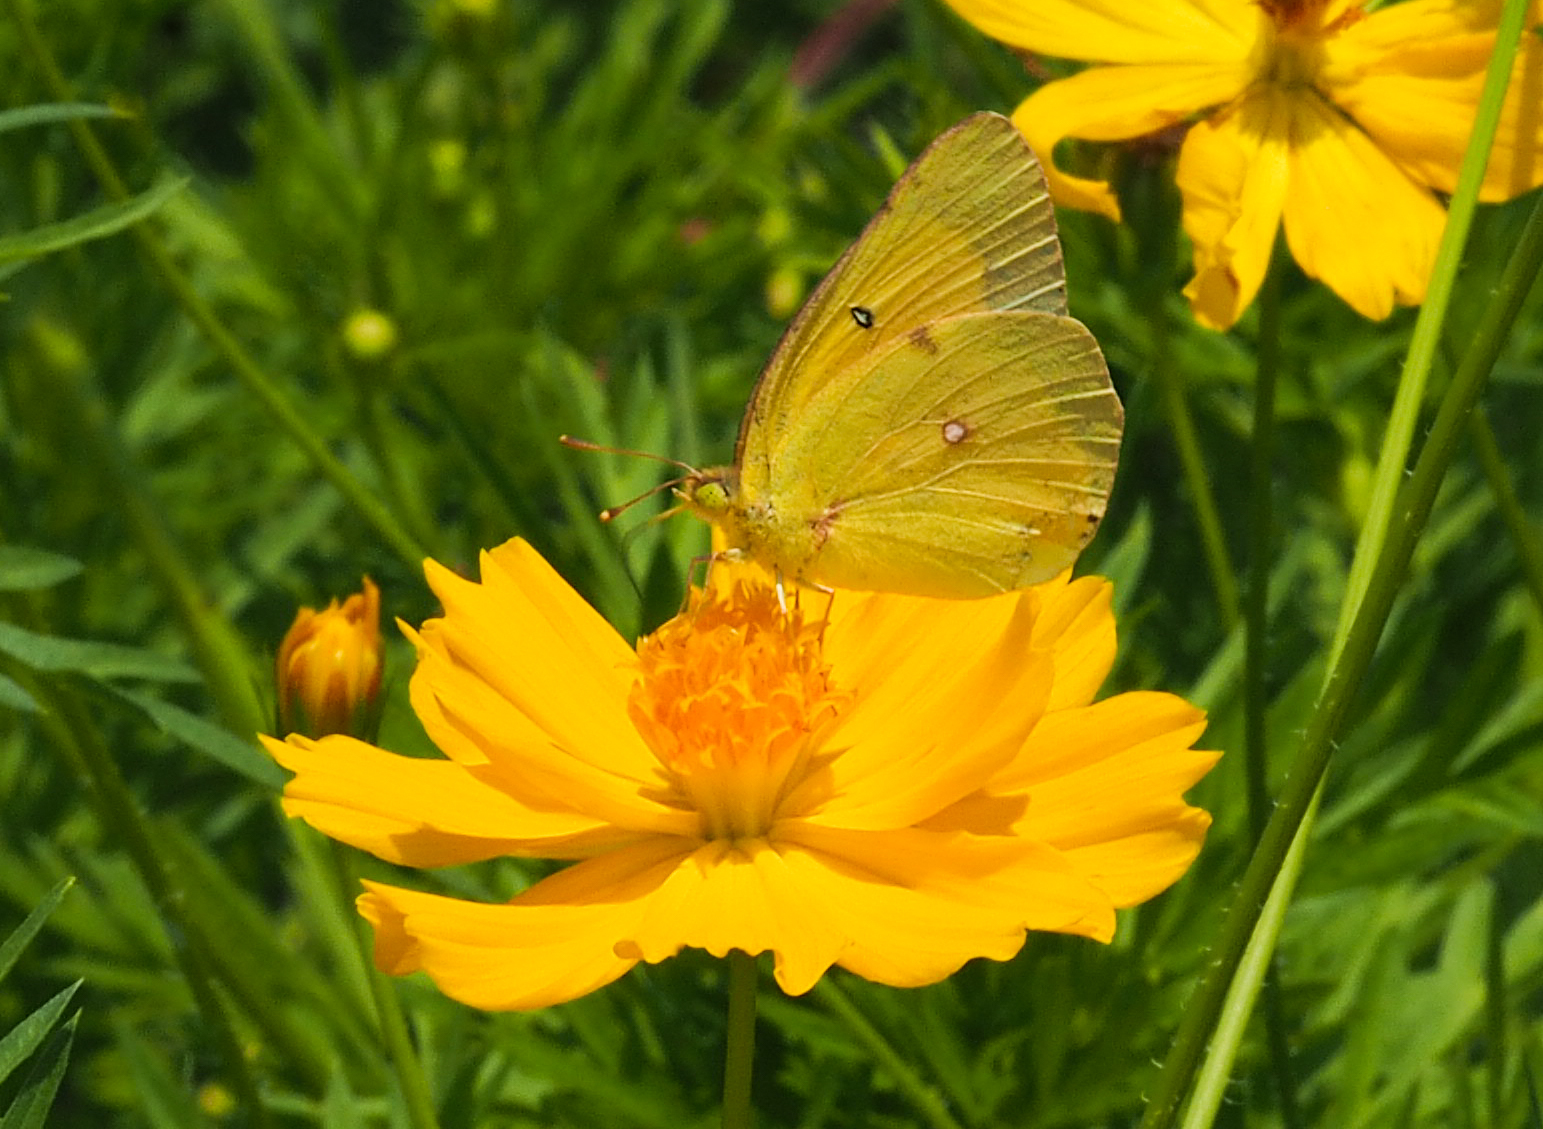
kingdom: Animalia
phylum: Arthropoda
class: Insecta
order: Lepidoptera
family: Pieridae
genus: Colias
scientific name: Colias eurytheme
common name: Alfalfa butterfly
